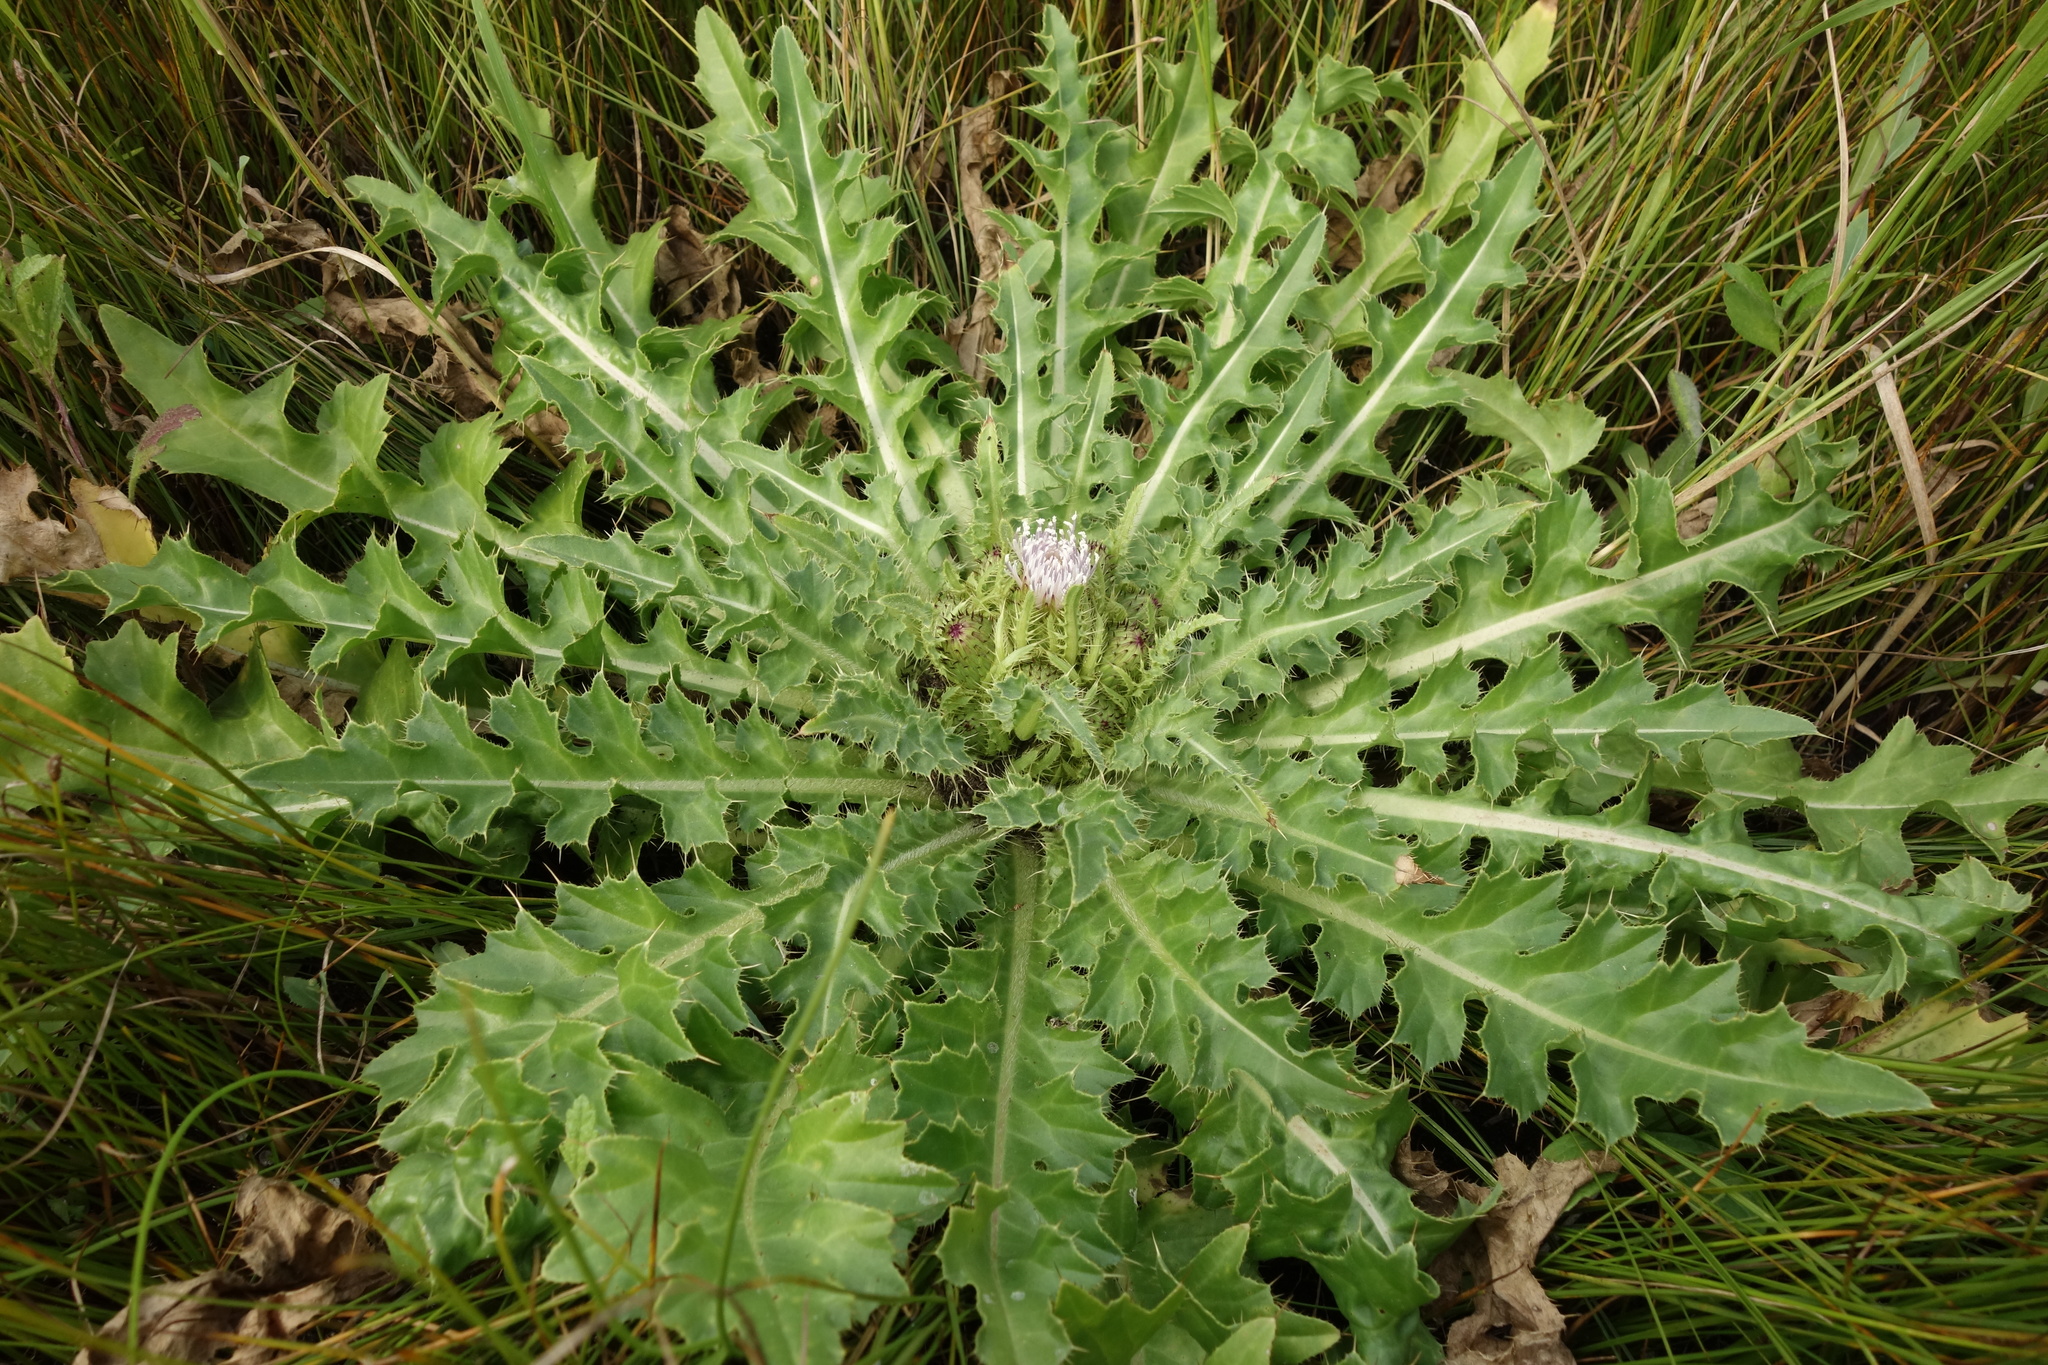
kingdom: Plantae
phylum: Tracheophyta
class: Magnoliopsida
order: Asterales
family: Asteraceae
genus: Cirsium
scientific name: Cirsium esculentum
